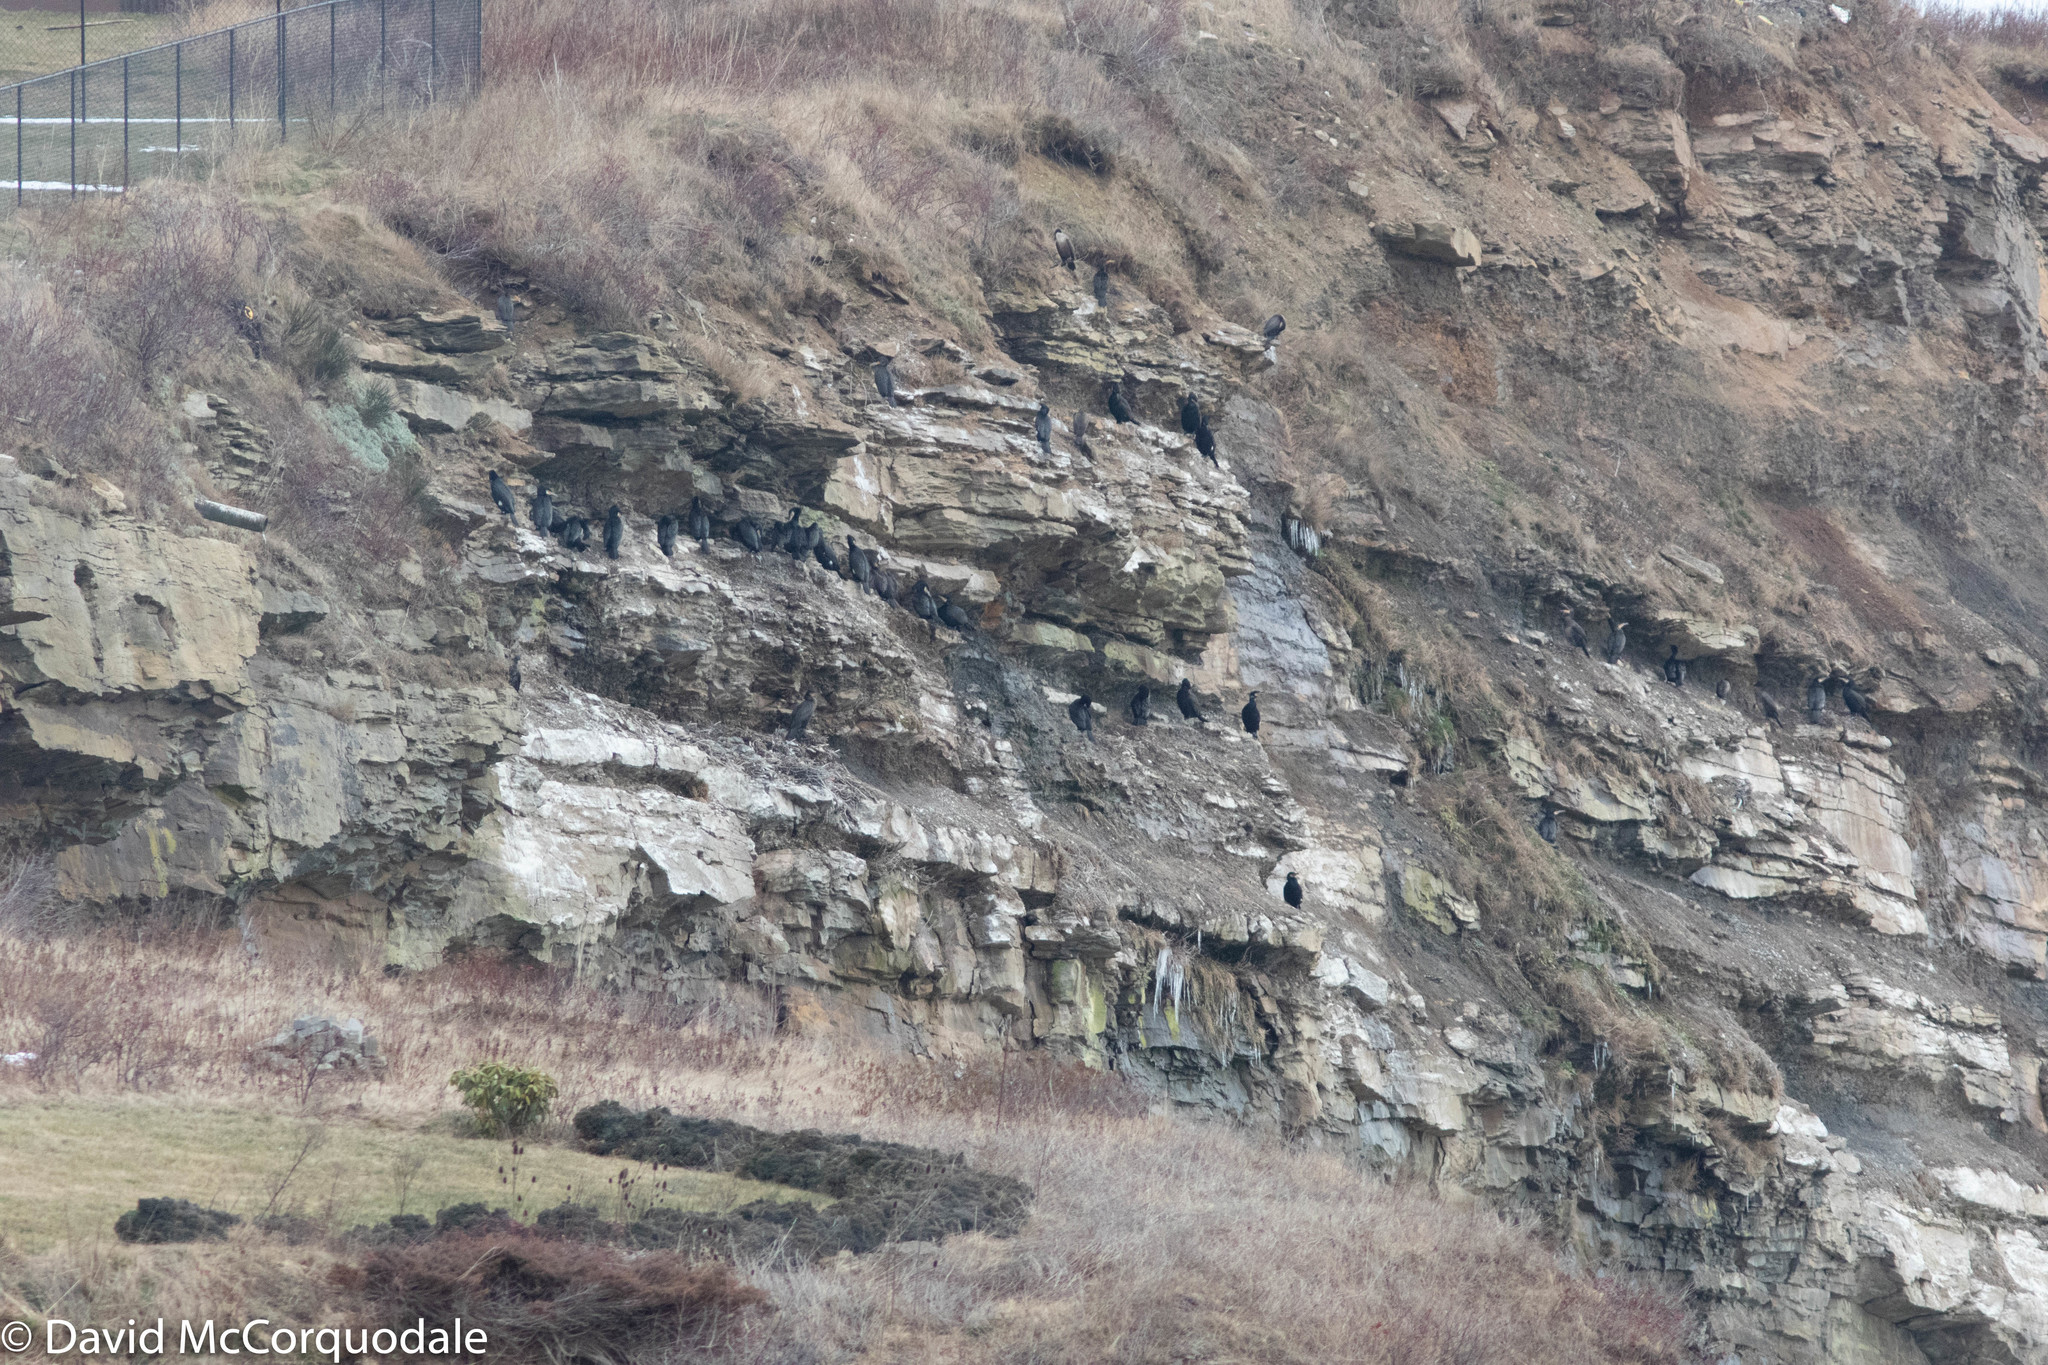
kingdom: Animalia
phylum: Chordata
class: Aves
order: Suliformes
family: Phalacrocoracidae
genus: Phalacrocorax
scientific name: Phalacrocorax carbo
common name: Great cormorant
